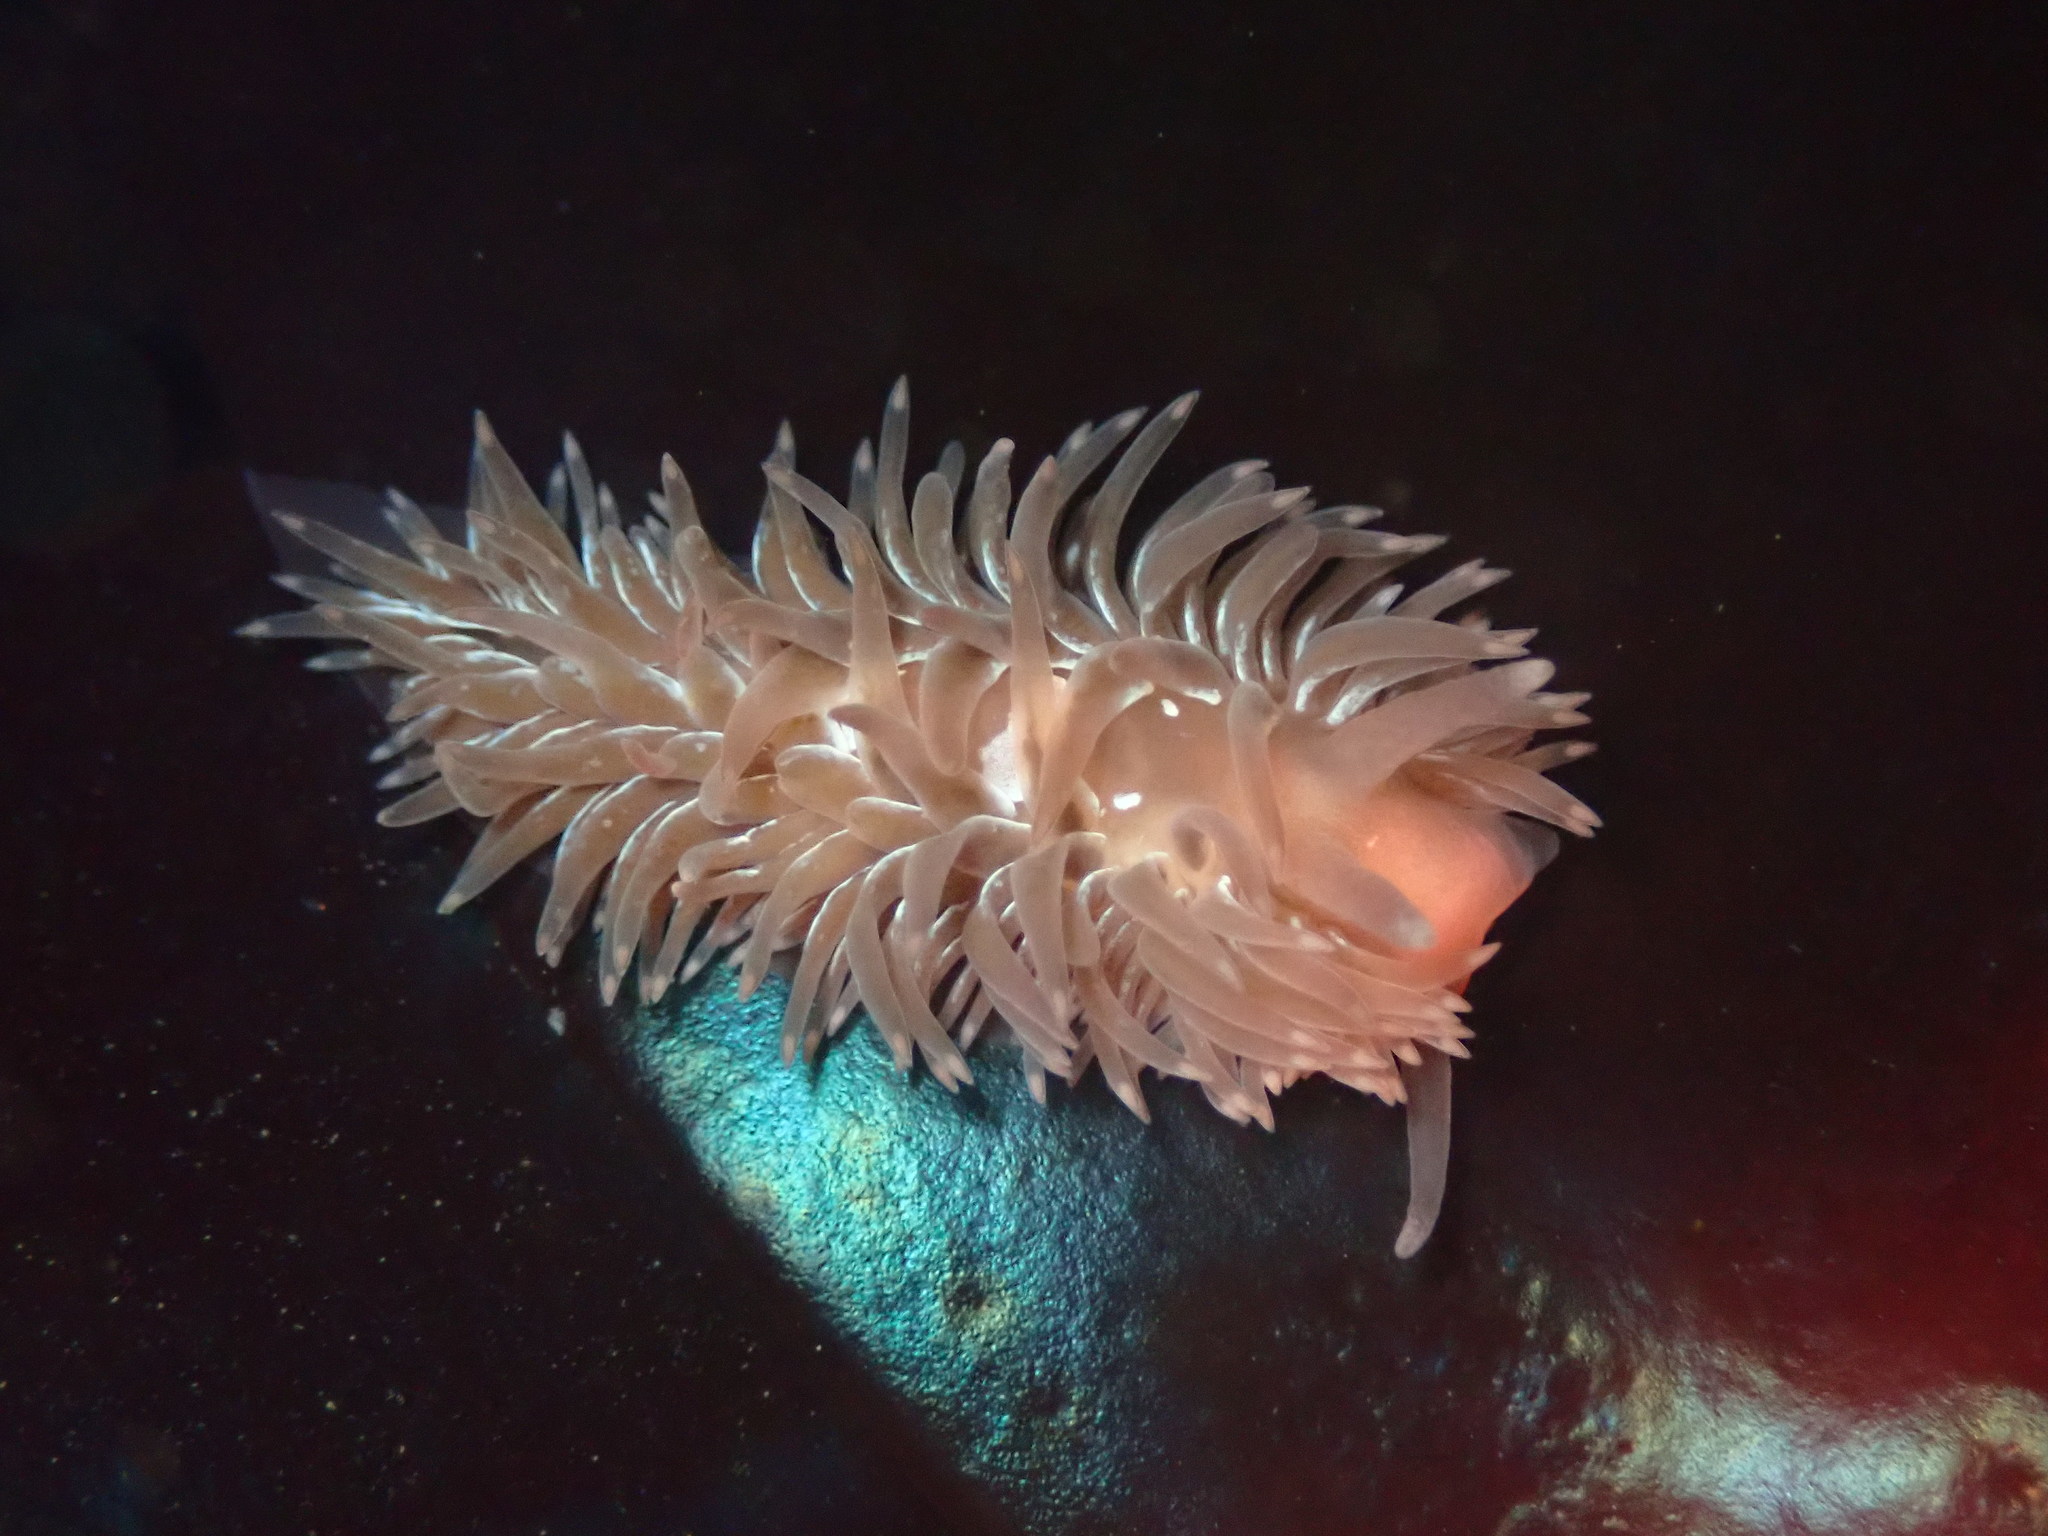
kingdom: Animalia
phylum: Mollusca
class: Gastropoda
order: Nudibranchia
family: Aeolidiidae
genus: Aeolidia
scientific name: Aeolidia loui
